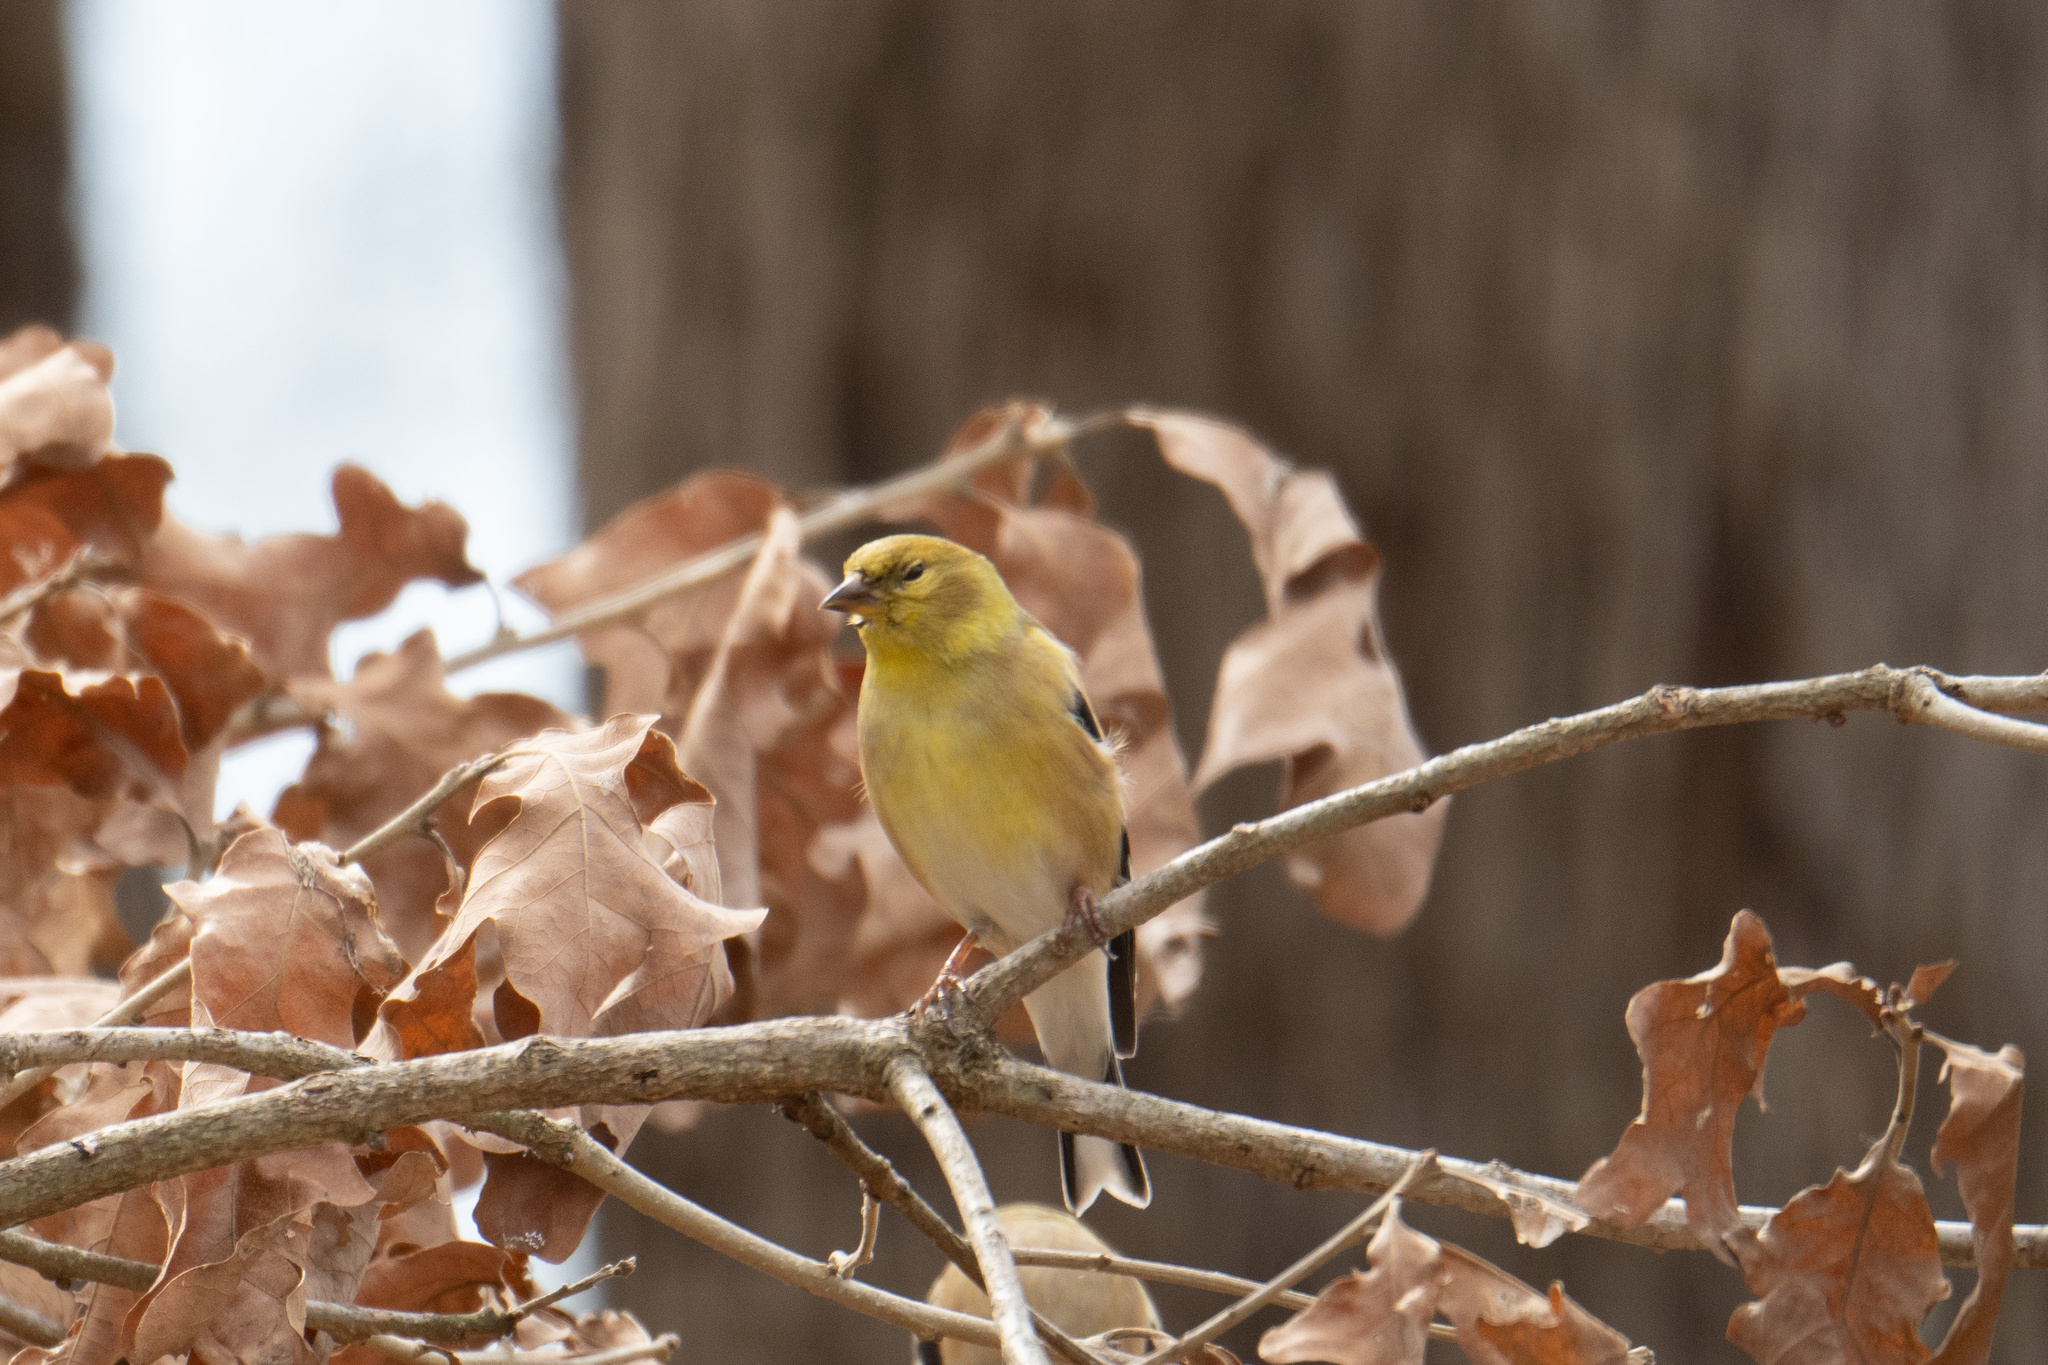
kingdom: Animalia
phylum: Chordata
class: Aves
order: Passeriformes
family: Fringillidae
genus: Spinus
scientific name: Spinus tristis
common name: American goldfinch
